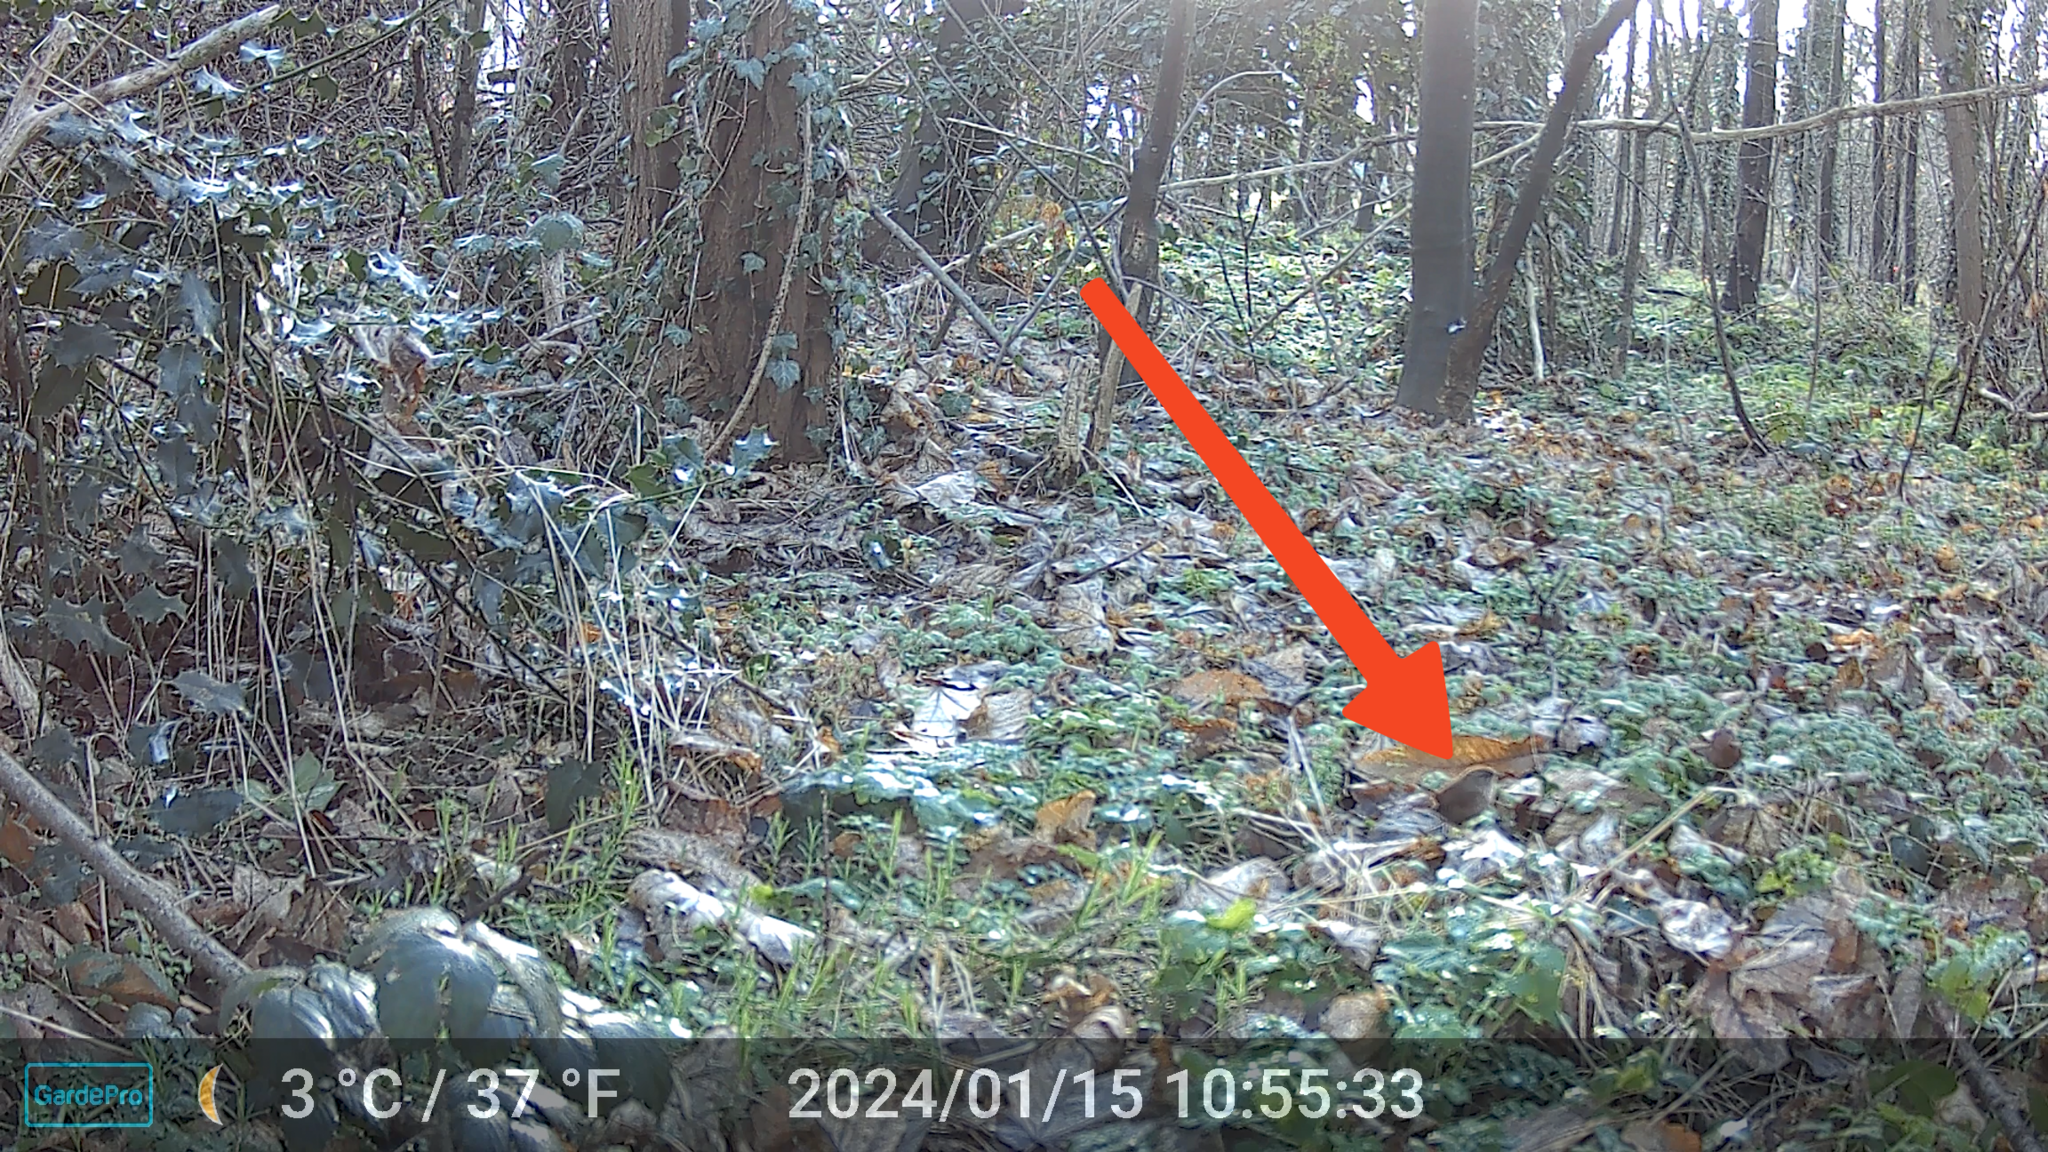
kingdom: Animalia
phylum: Chordata
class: Aves
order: Passeriformes
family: Troglodytidae
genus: Troglodytes
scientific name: Troglodytes troglodytes
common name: Eurasian wren
